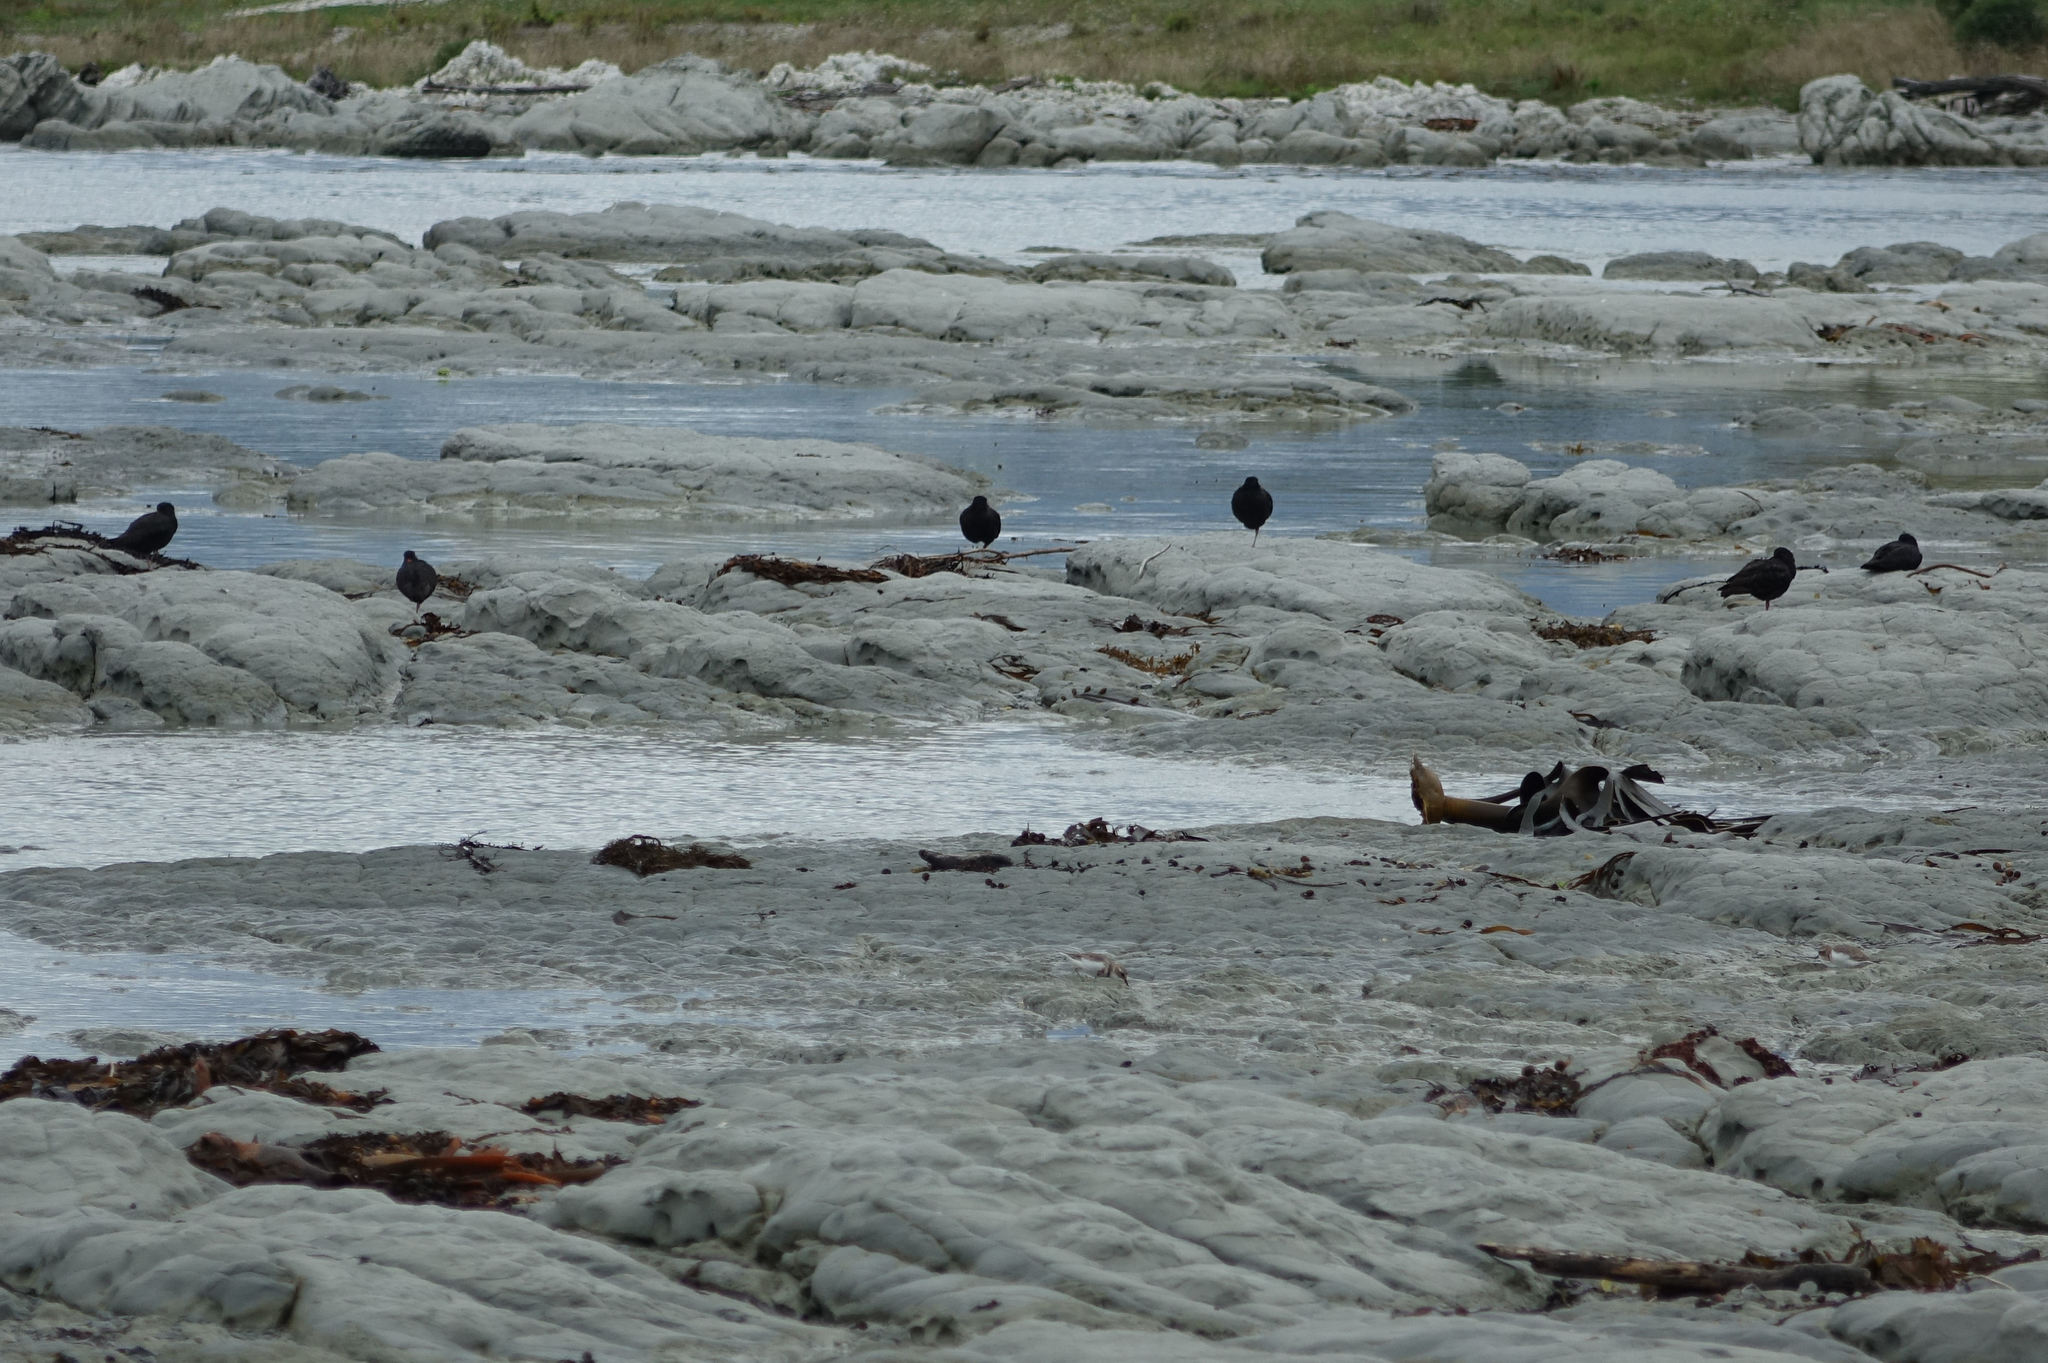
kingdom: Animalia
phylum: Chordata
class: Aves
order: Charadriiformes
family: Haematopodidae
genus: Haematopus
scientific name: Haematopus unicolor
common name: Variable oystercatcher
